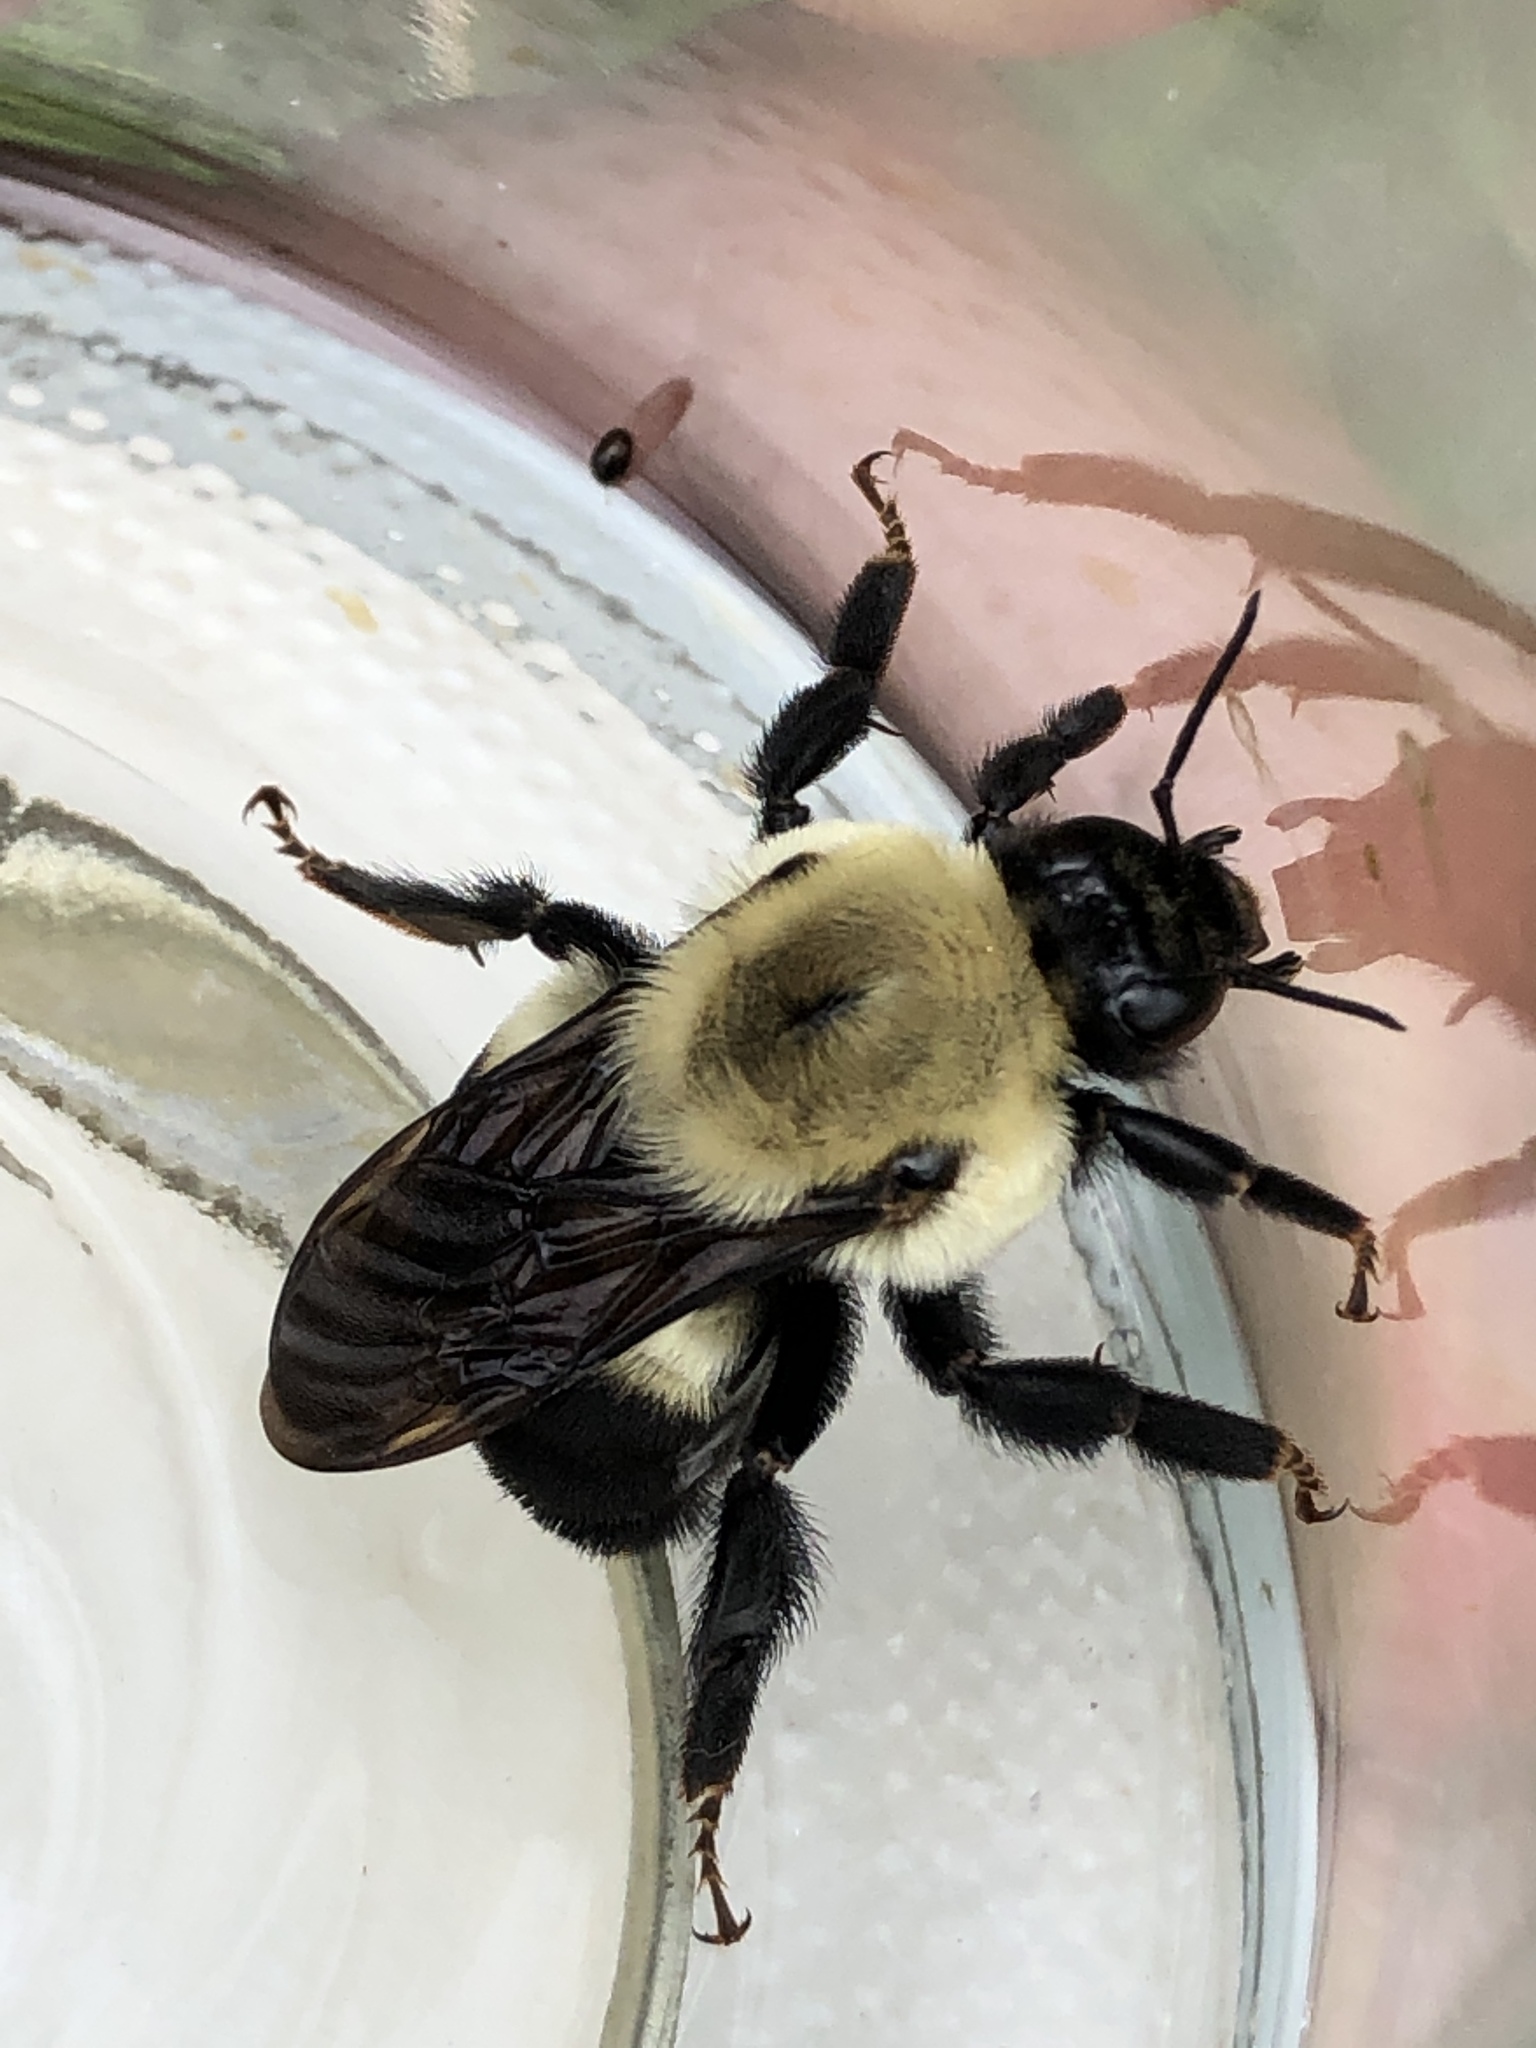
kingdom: Animalia
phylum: Arthropoda
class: Insecta
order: Hymenoptera
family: Apidae
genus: Bombus
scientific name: Bombus griseocollis
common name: Brown-belted bumble bee
